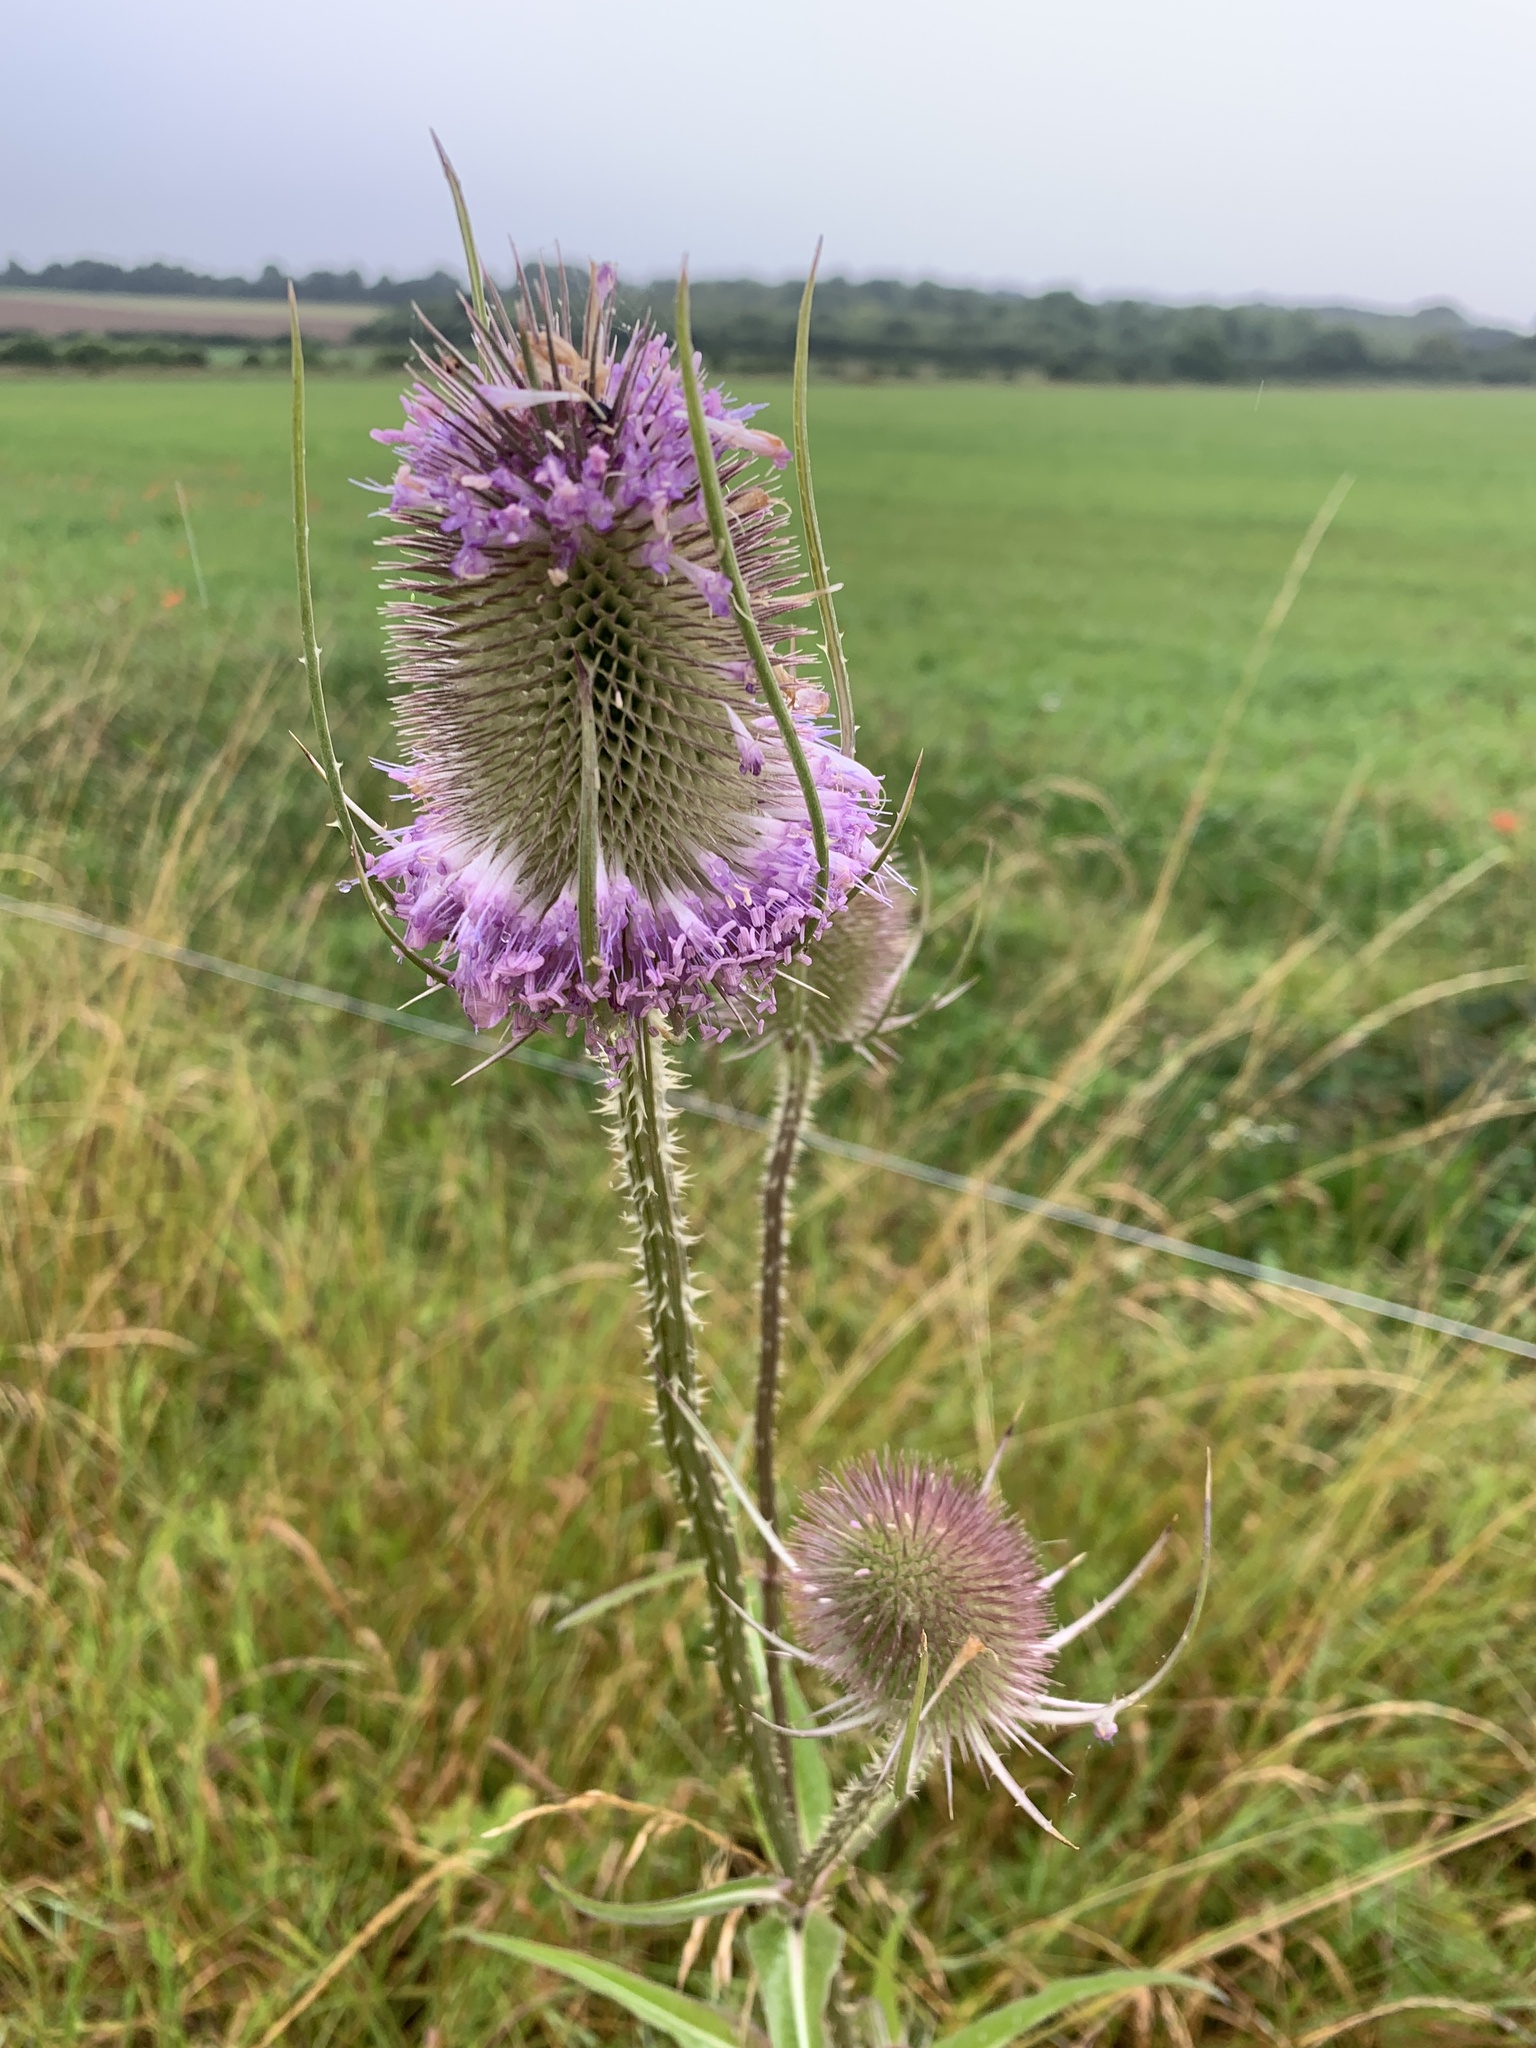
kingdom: Plantae
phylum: Tracheophyta
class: Magnoliopsida
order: Dipsacales
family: Caprifoliaceae
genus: Dipsacus
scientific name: Dipsacus fullonum
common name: Teasel
